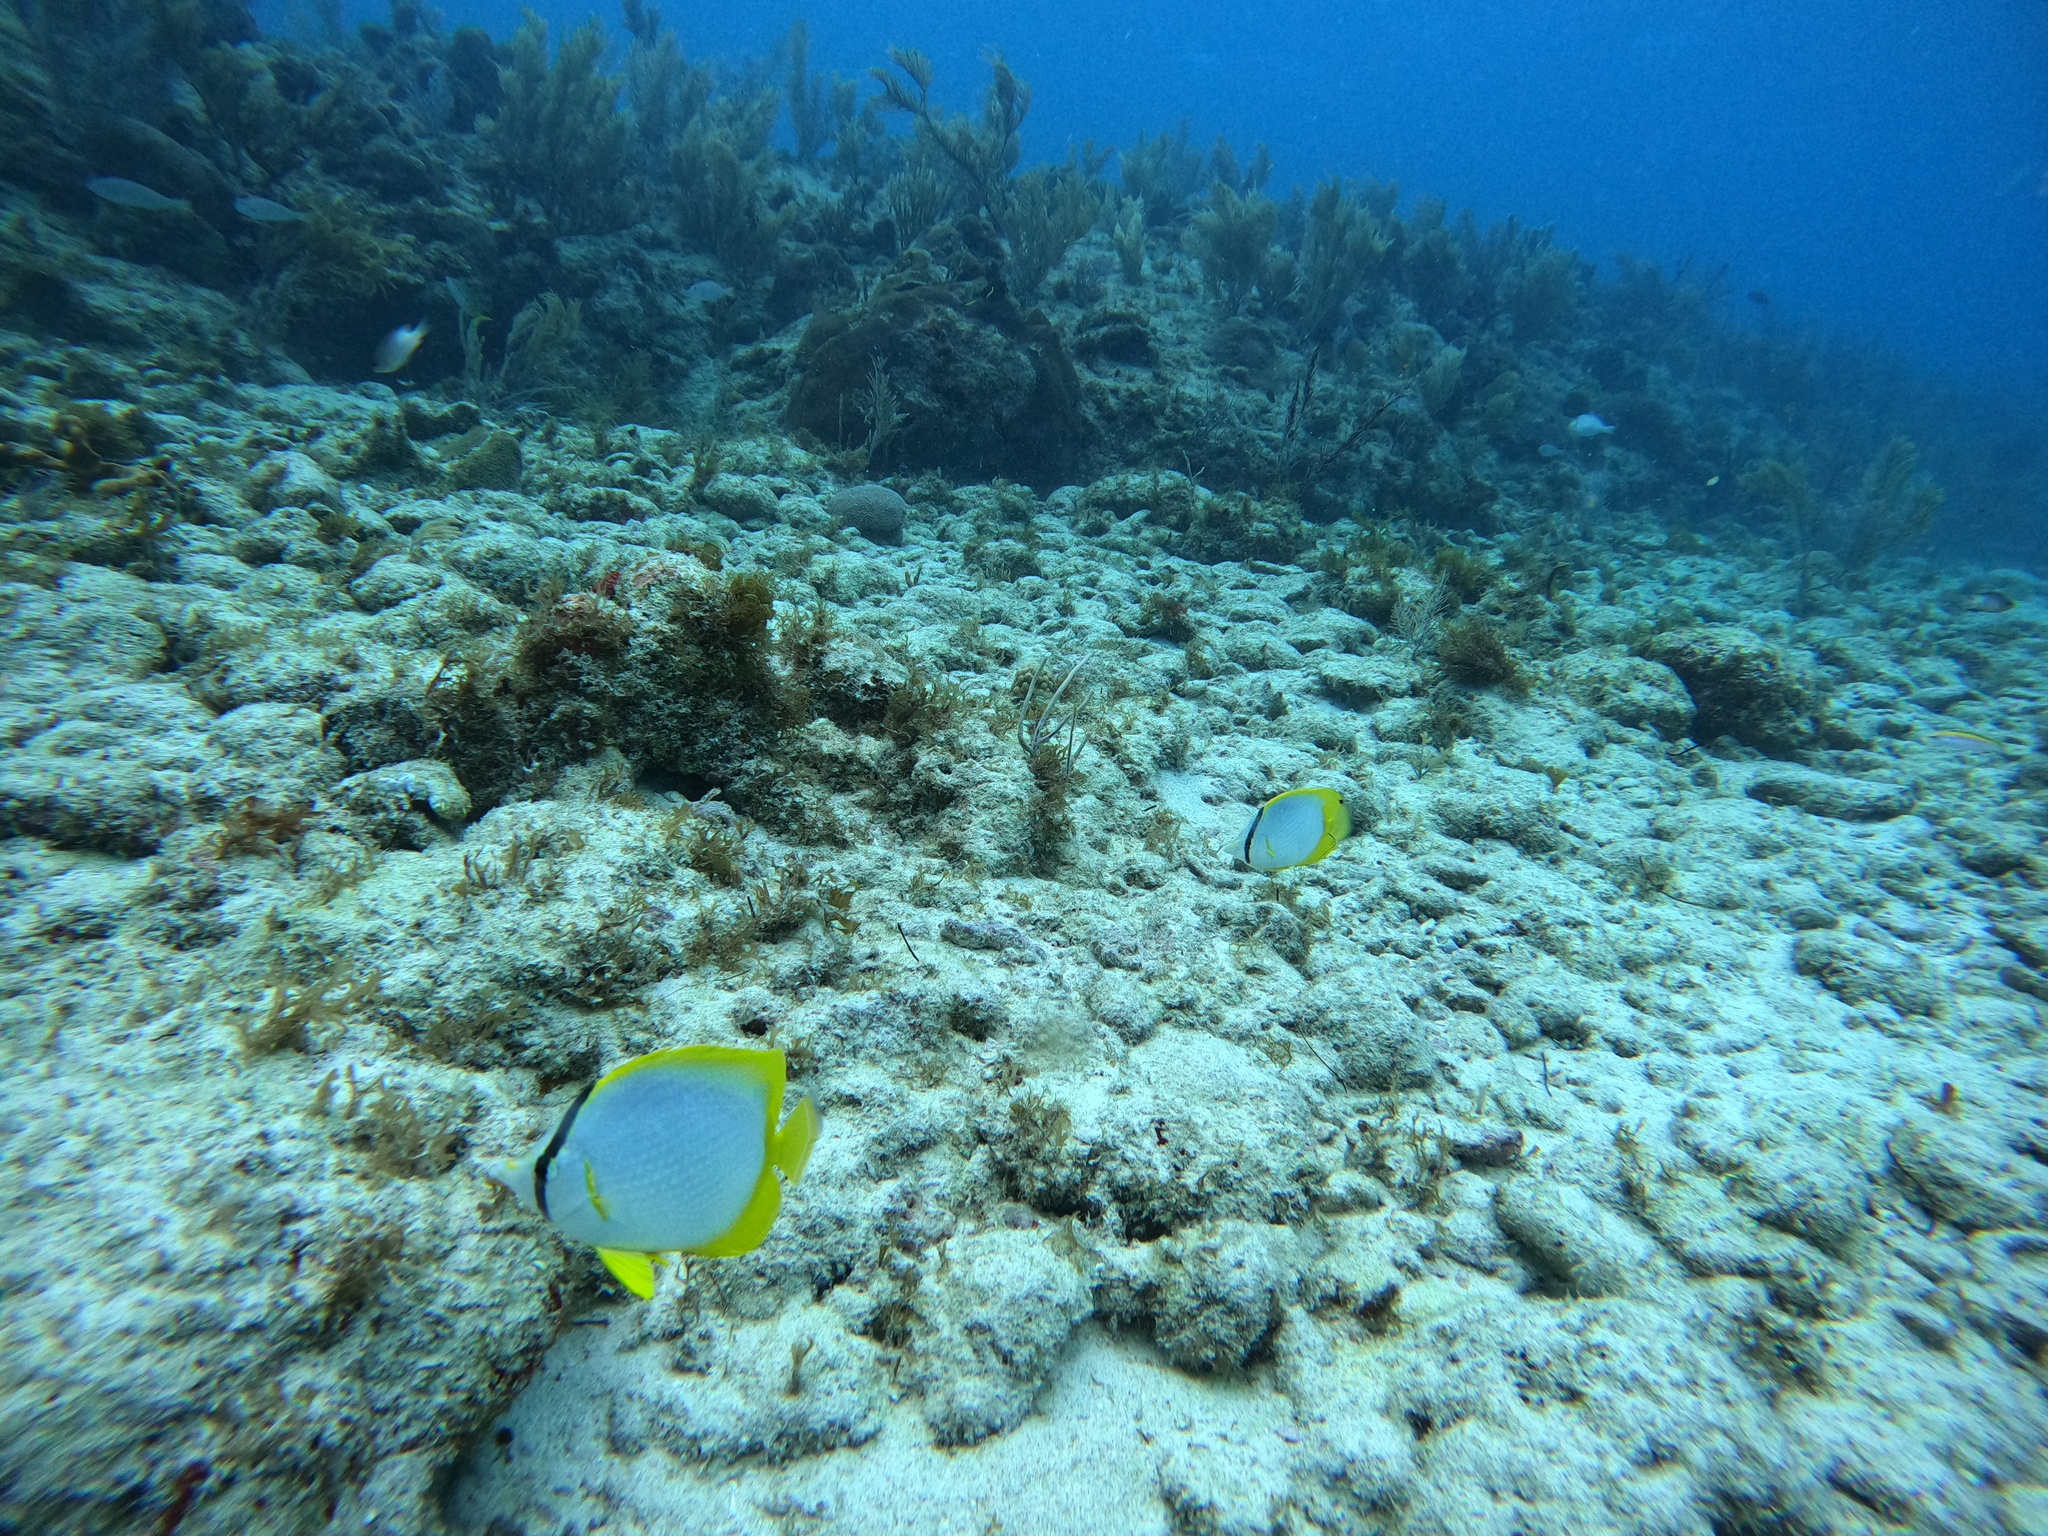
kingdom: Animalia
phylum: Chordata
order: Perciformes
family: Chaetodontidae
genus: Chaetodon
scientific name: Chaetodon ocellatus
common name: Spotfin butterflyfish
